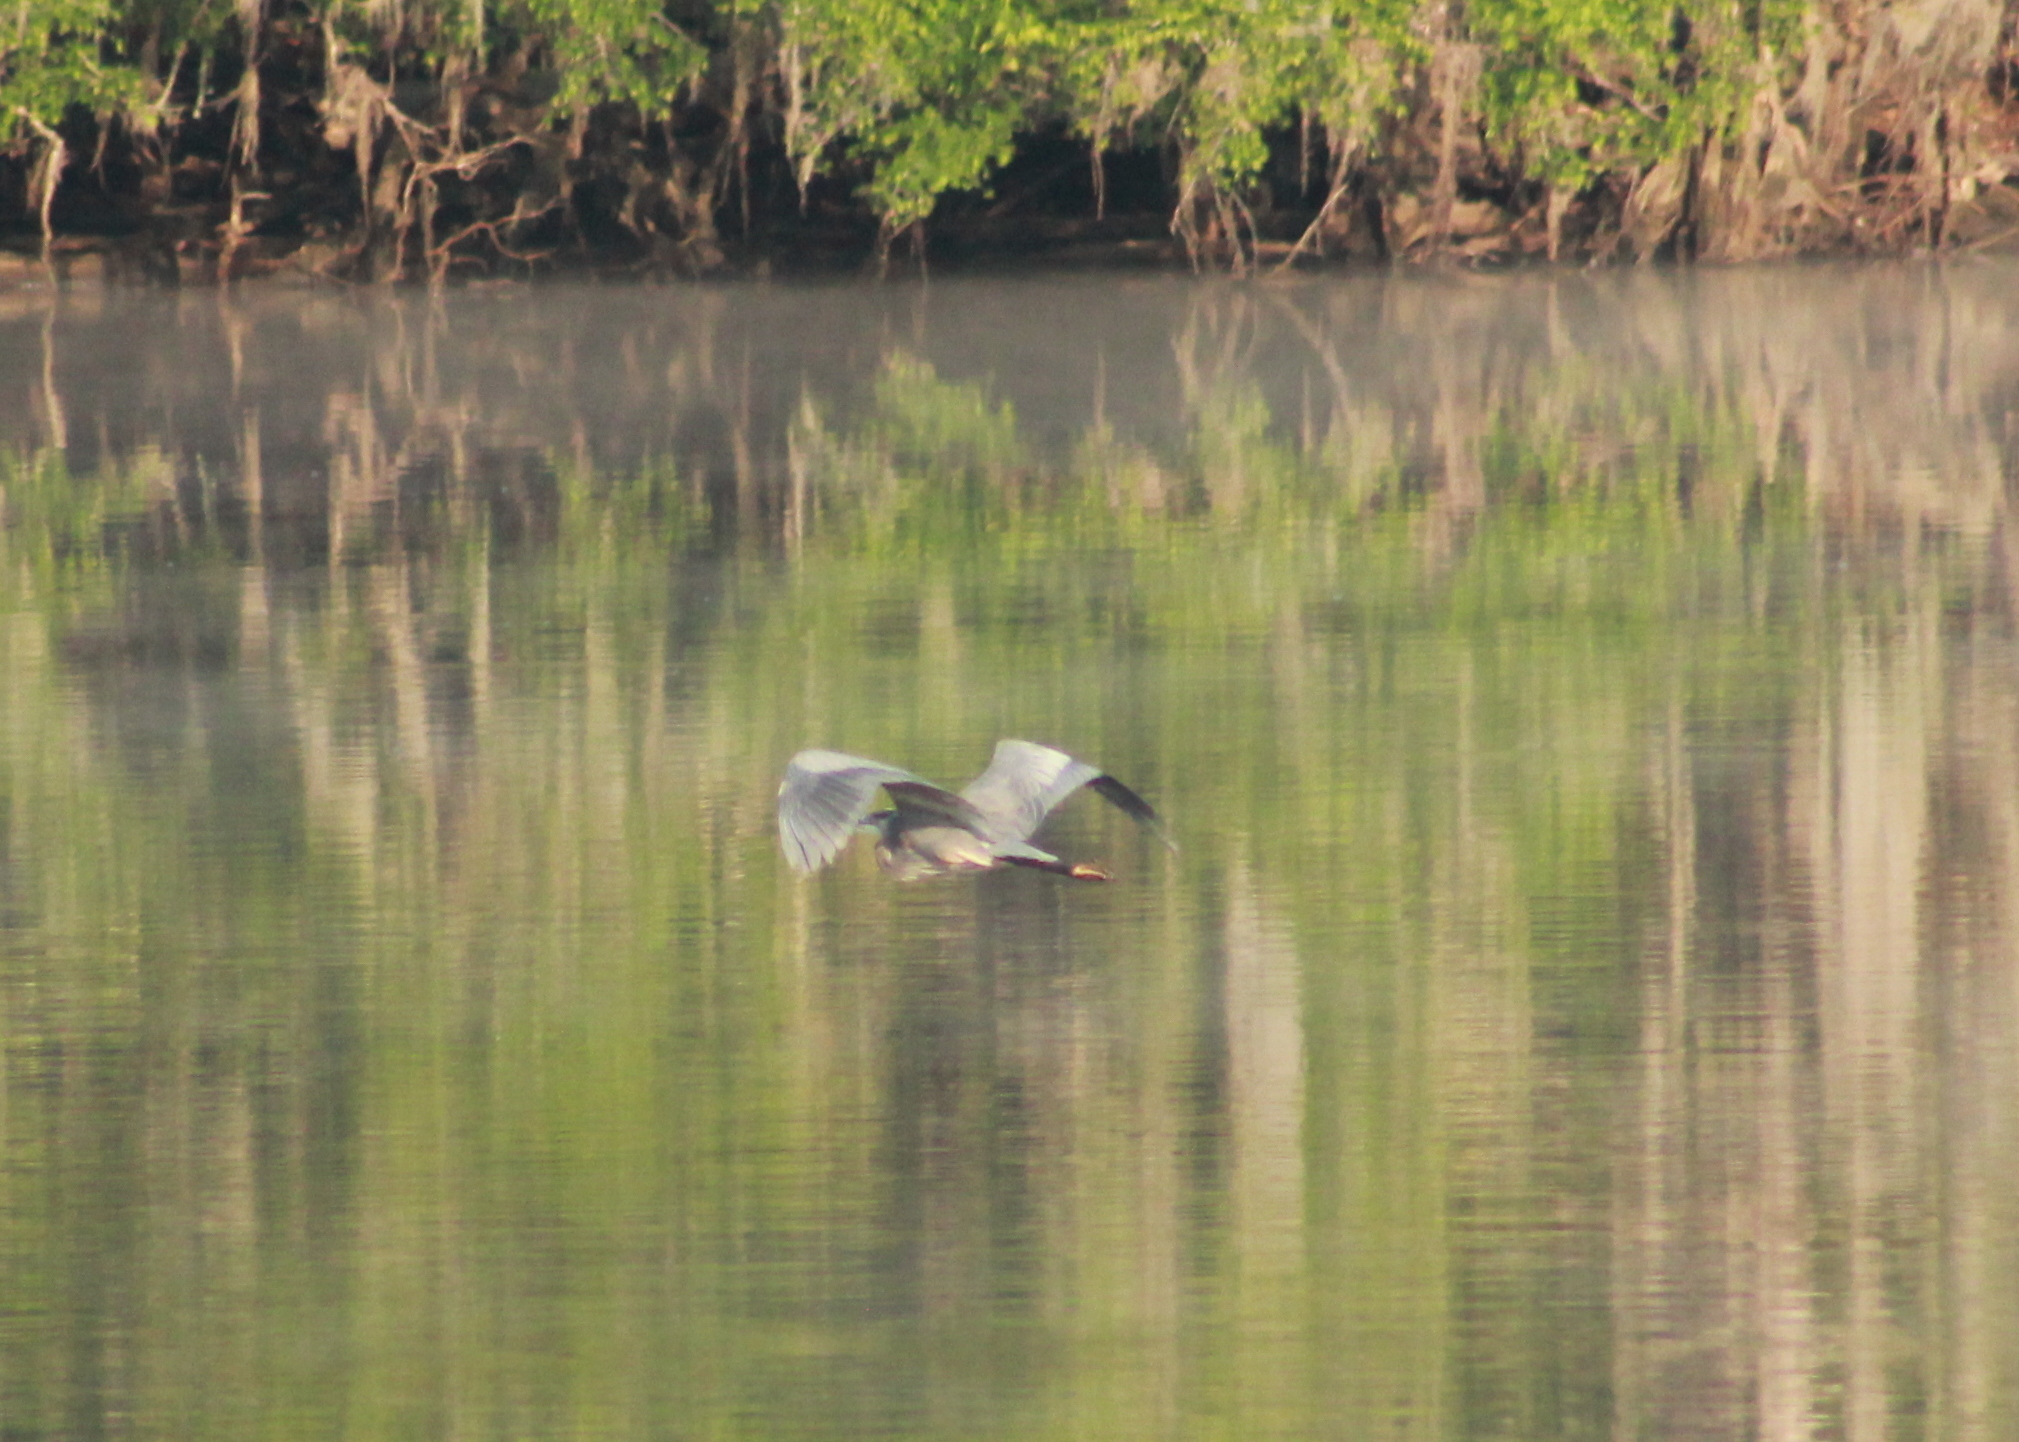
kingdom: Animalia
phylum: Chordata
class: Aves
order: Pelecaniformes
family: Ardeidae
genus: Ardea
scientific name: Ardea herodias
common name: Great blue heron
